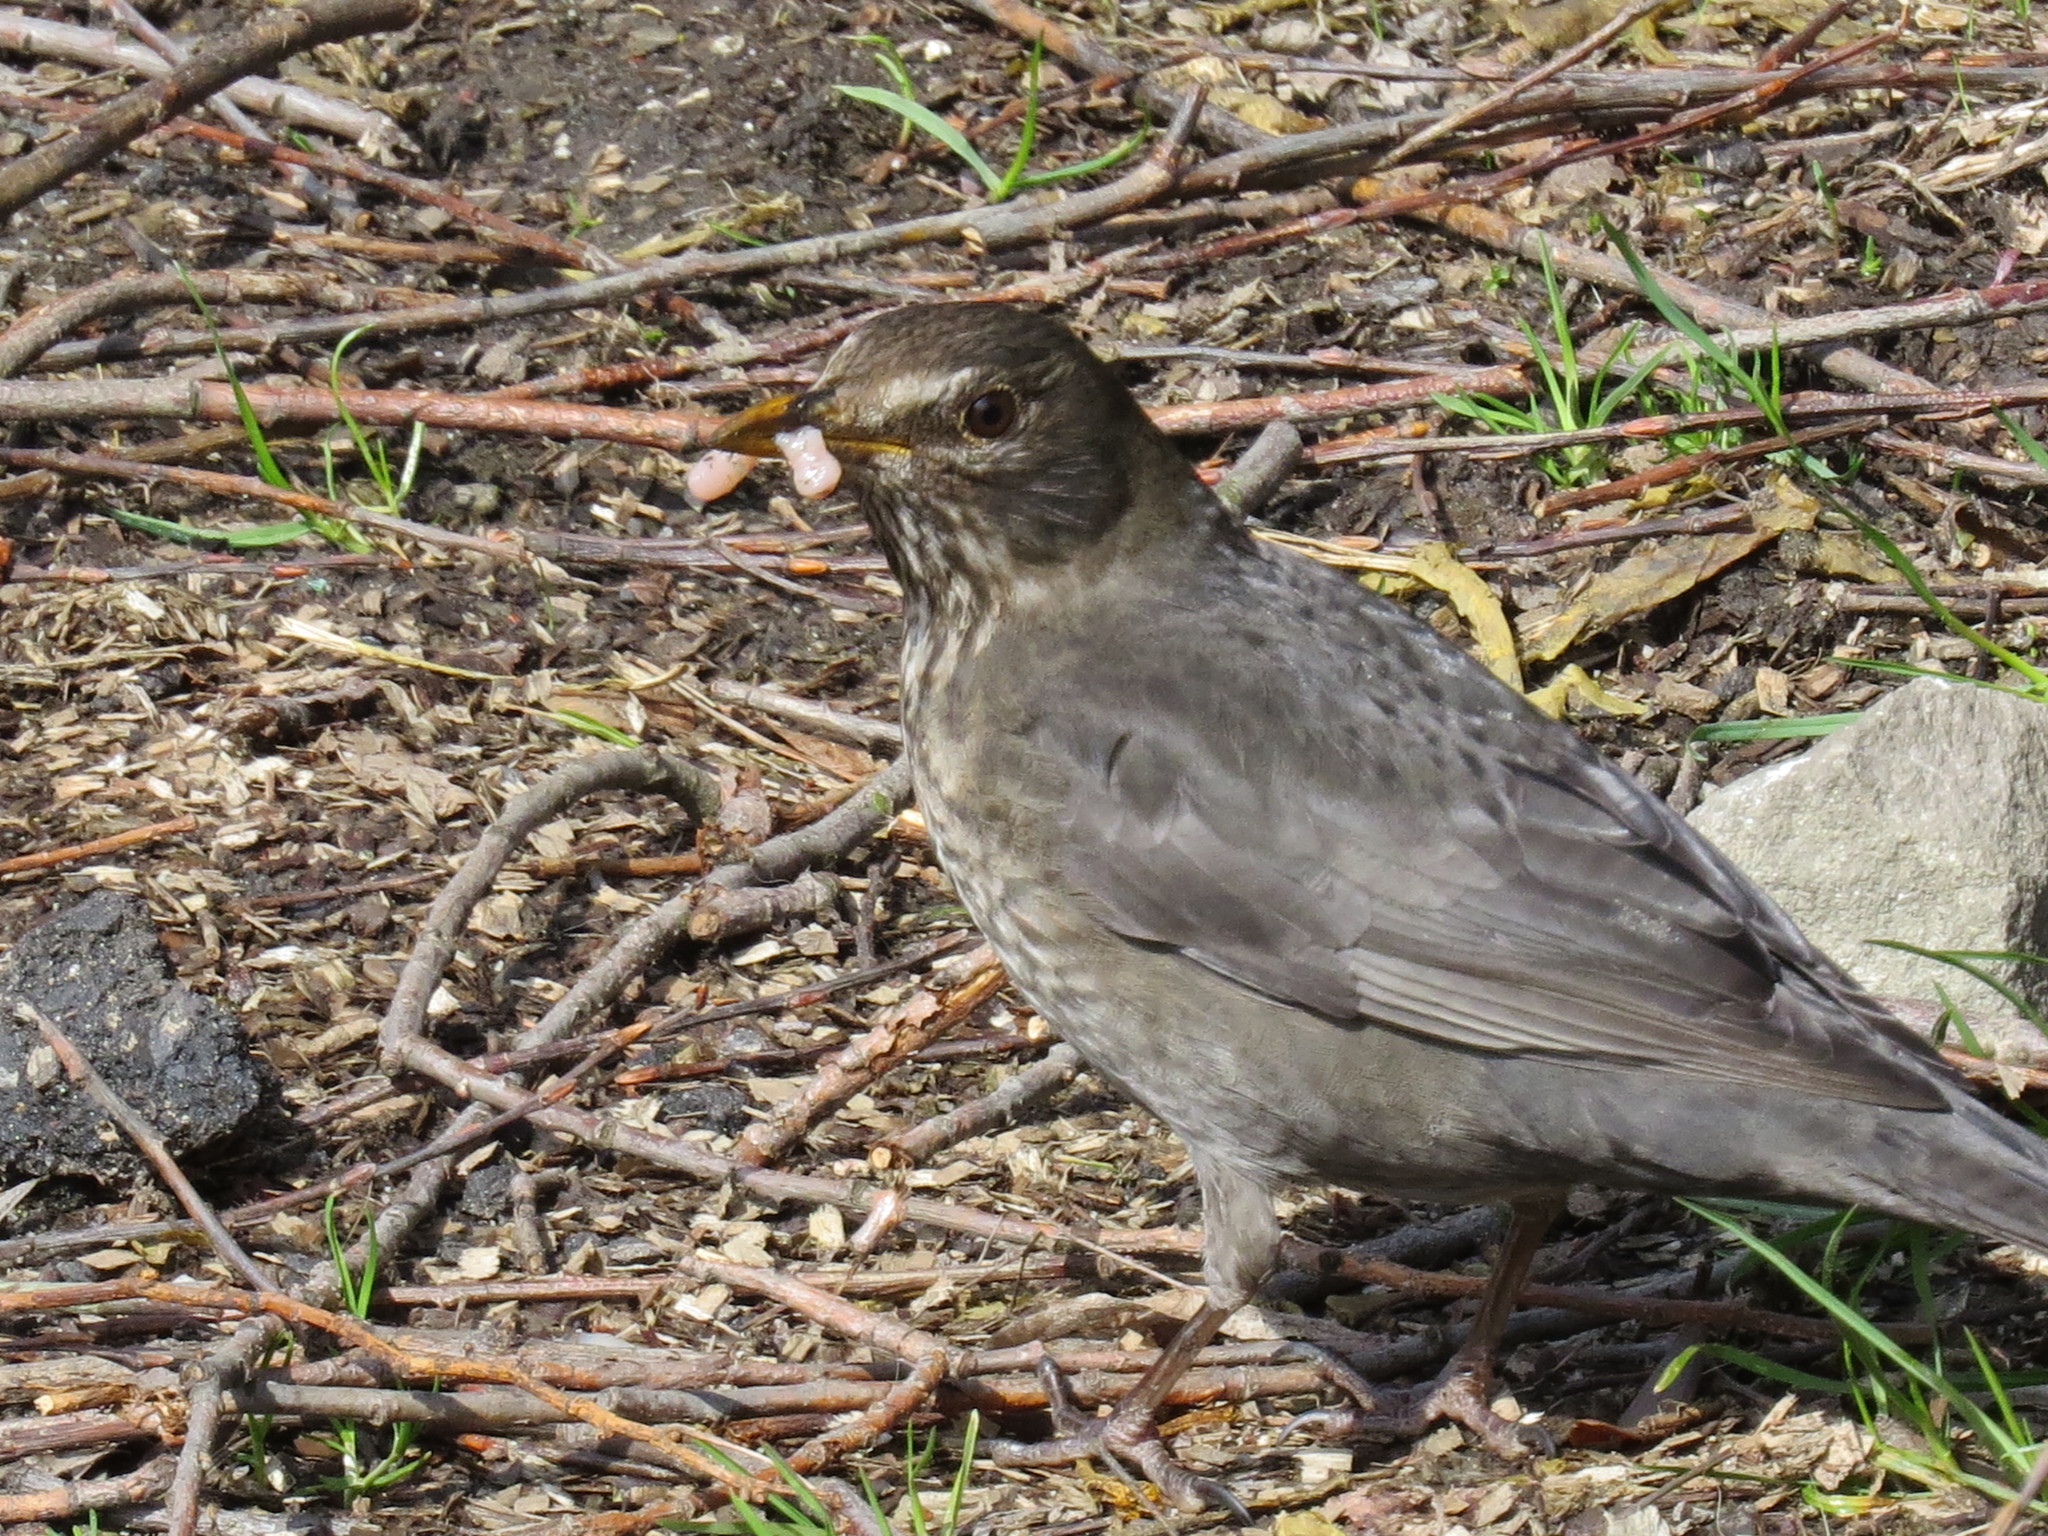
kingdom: Animalia
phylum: Chordata
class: Aves
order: Passeriformes
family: Turdidae
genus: Turdus
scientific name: Turdus merula
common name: Common blackbird
